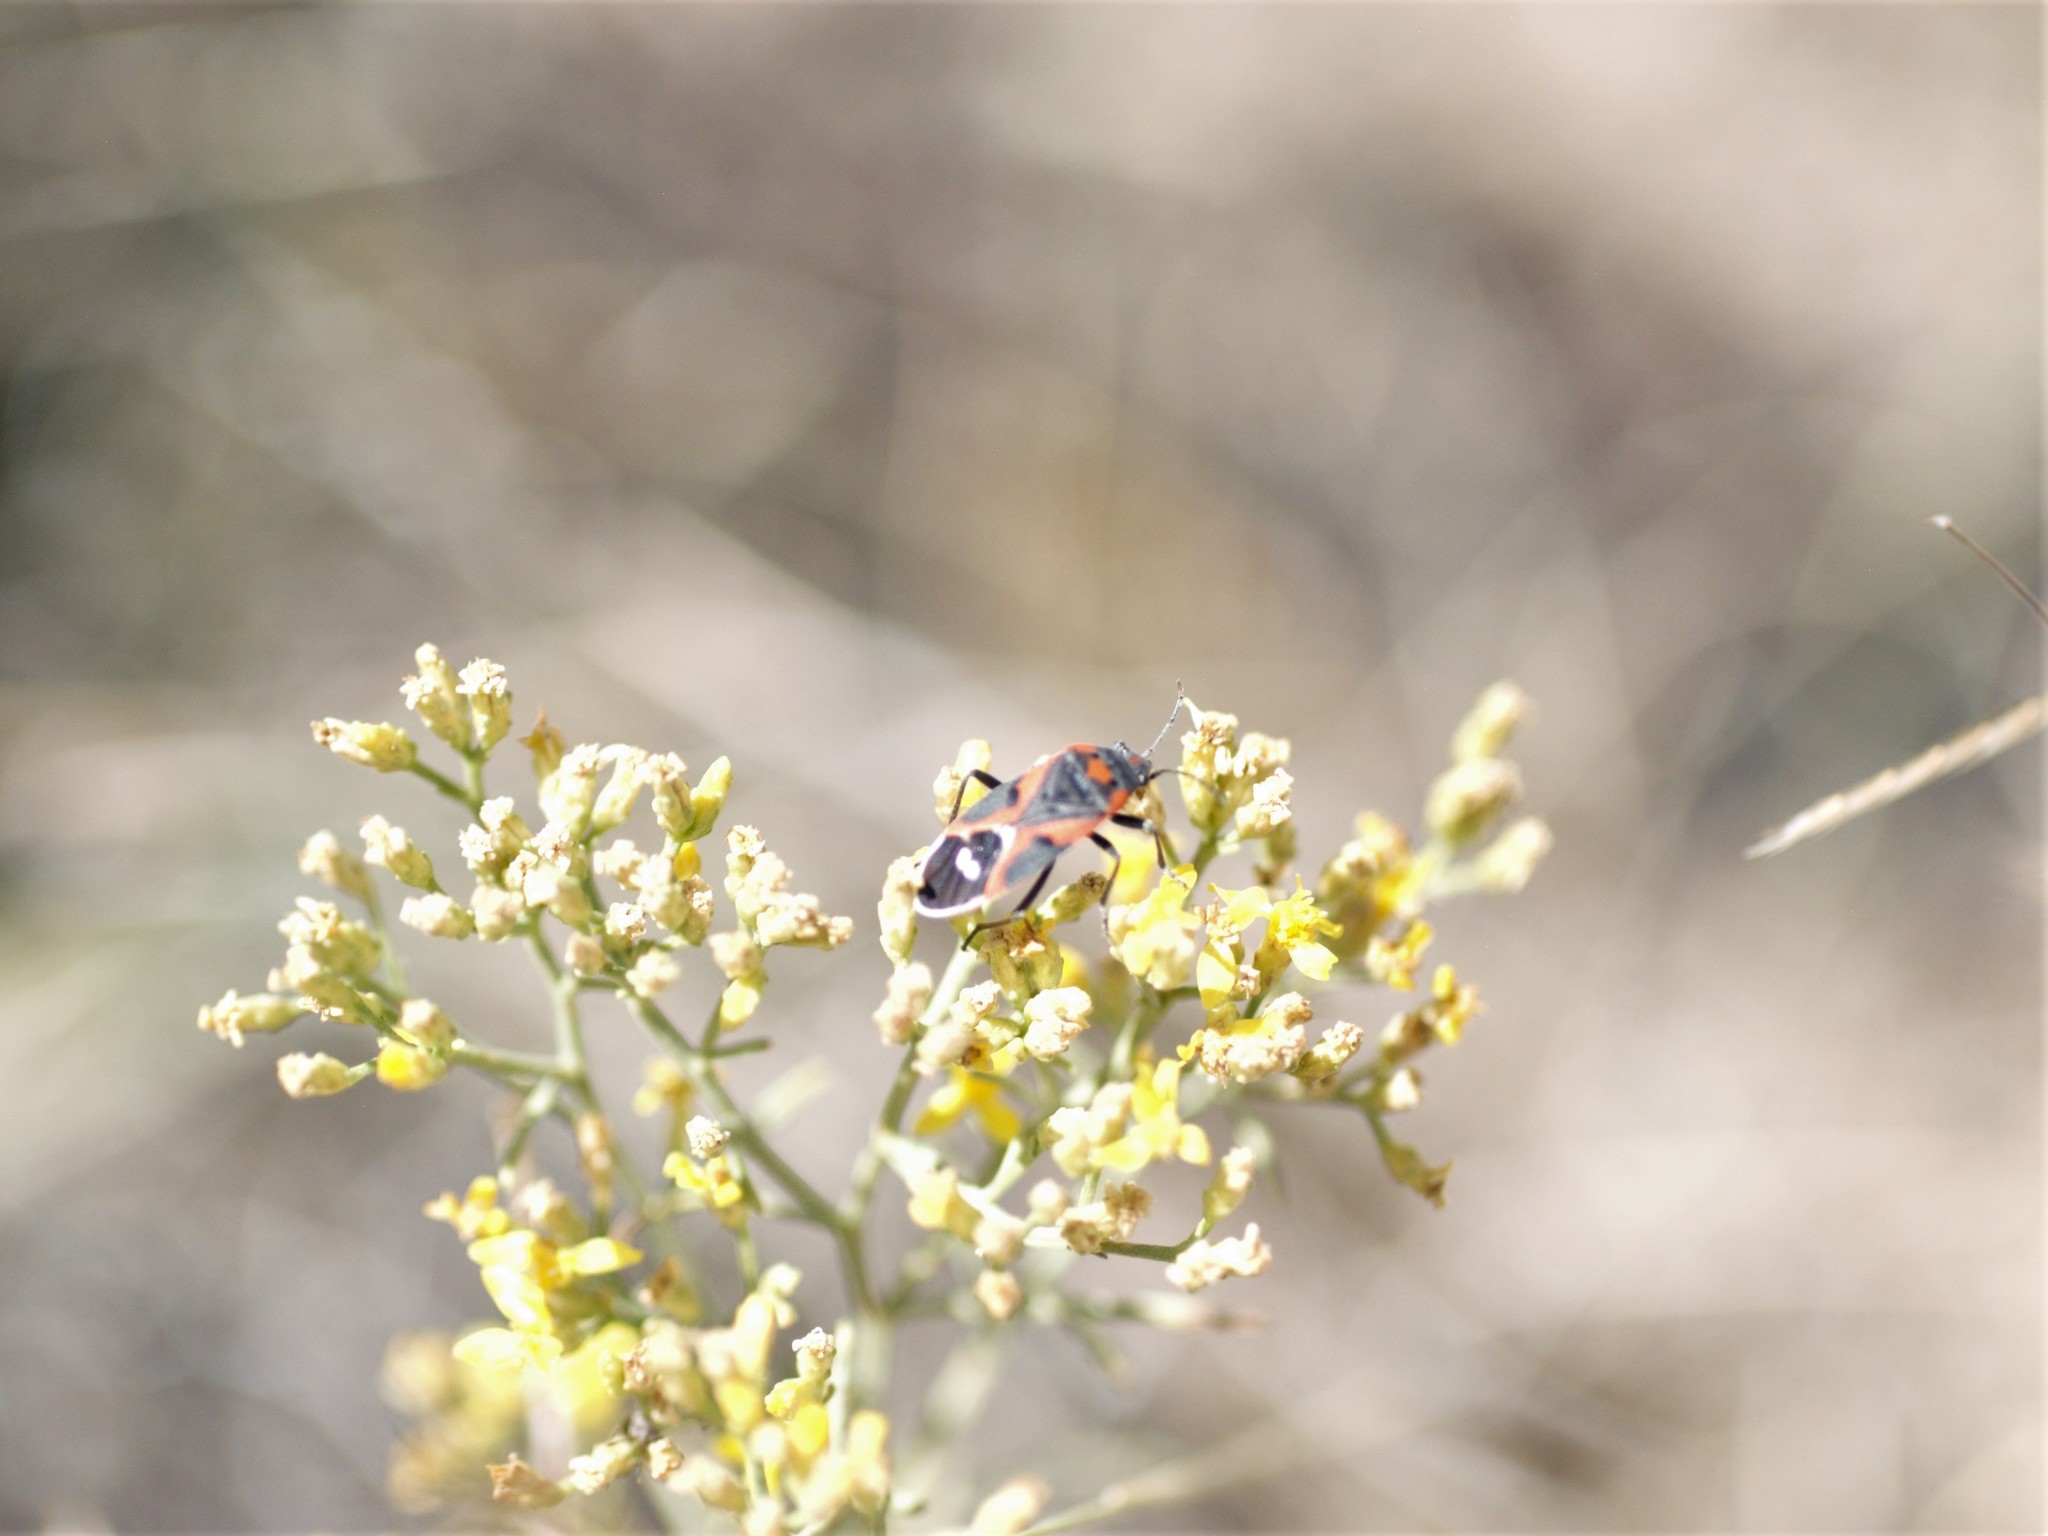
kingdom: Animalia
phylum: Arthropoda
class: Insecta
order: Hemiptera
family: Lygaeidae
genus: Lygaeus
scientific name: Lygaeus kalmii
